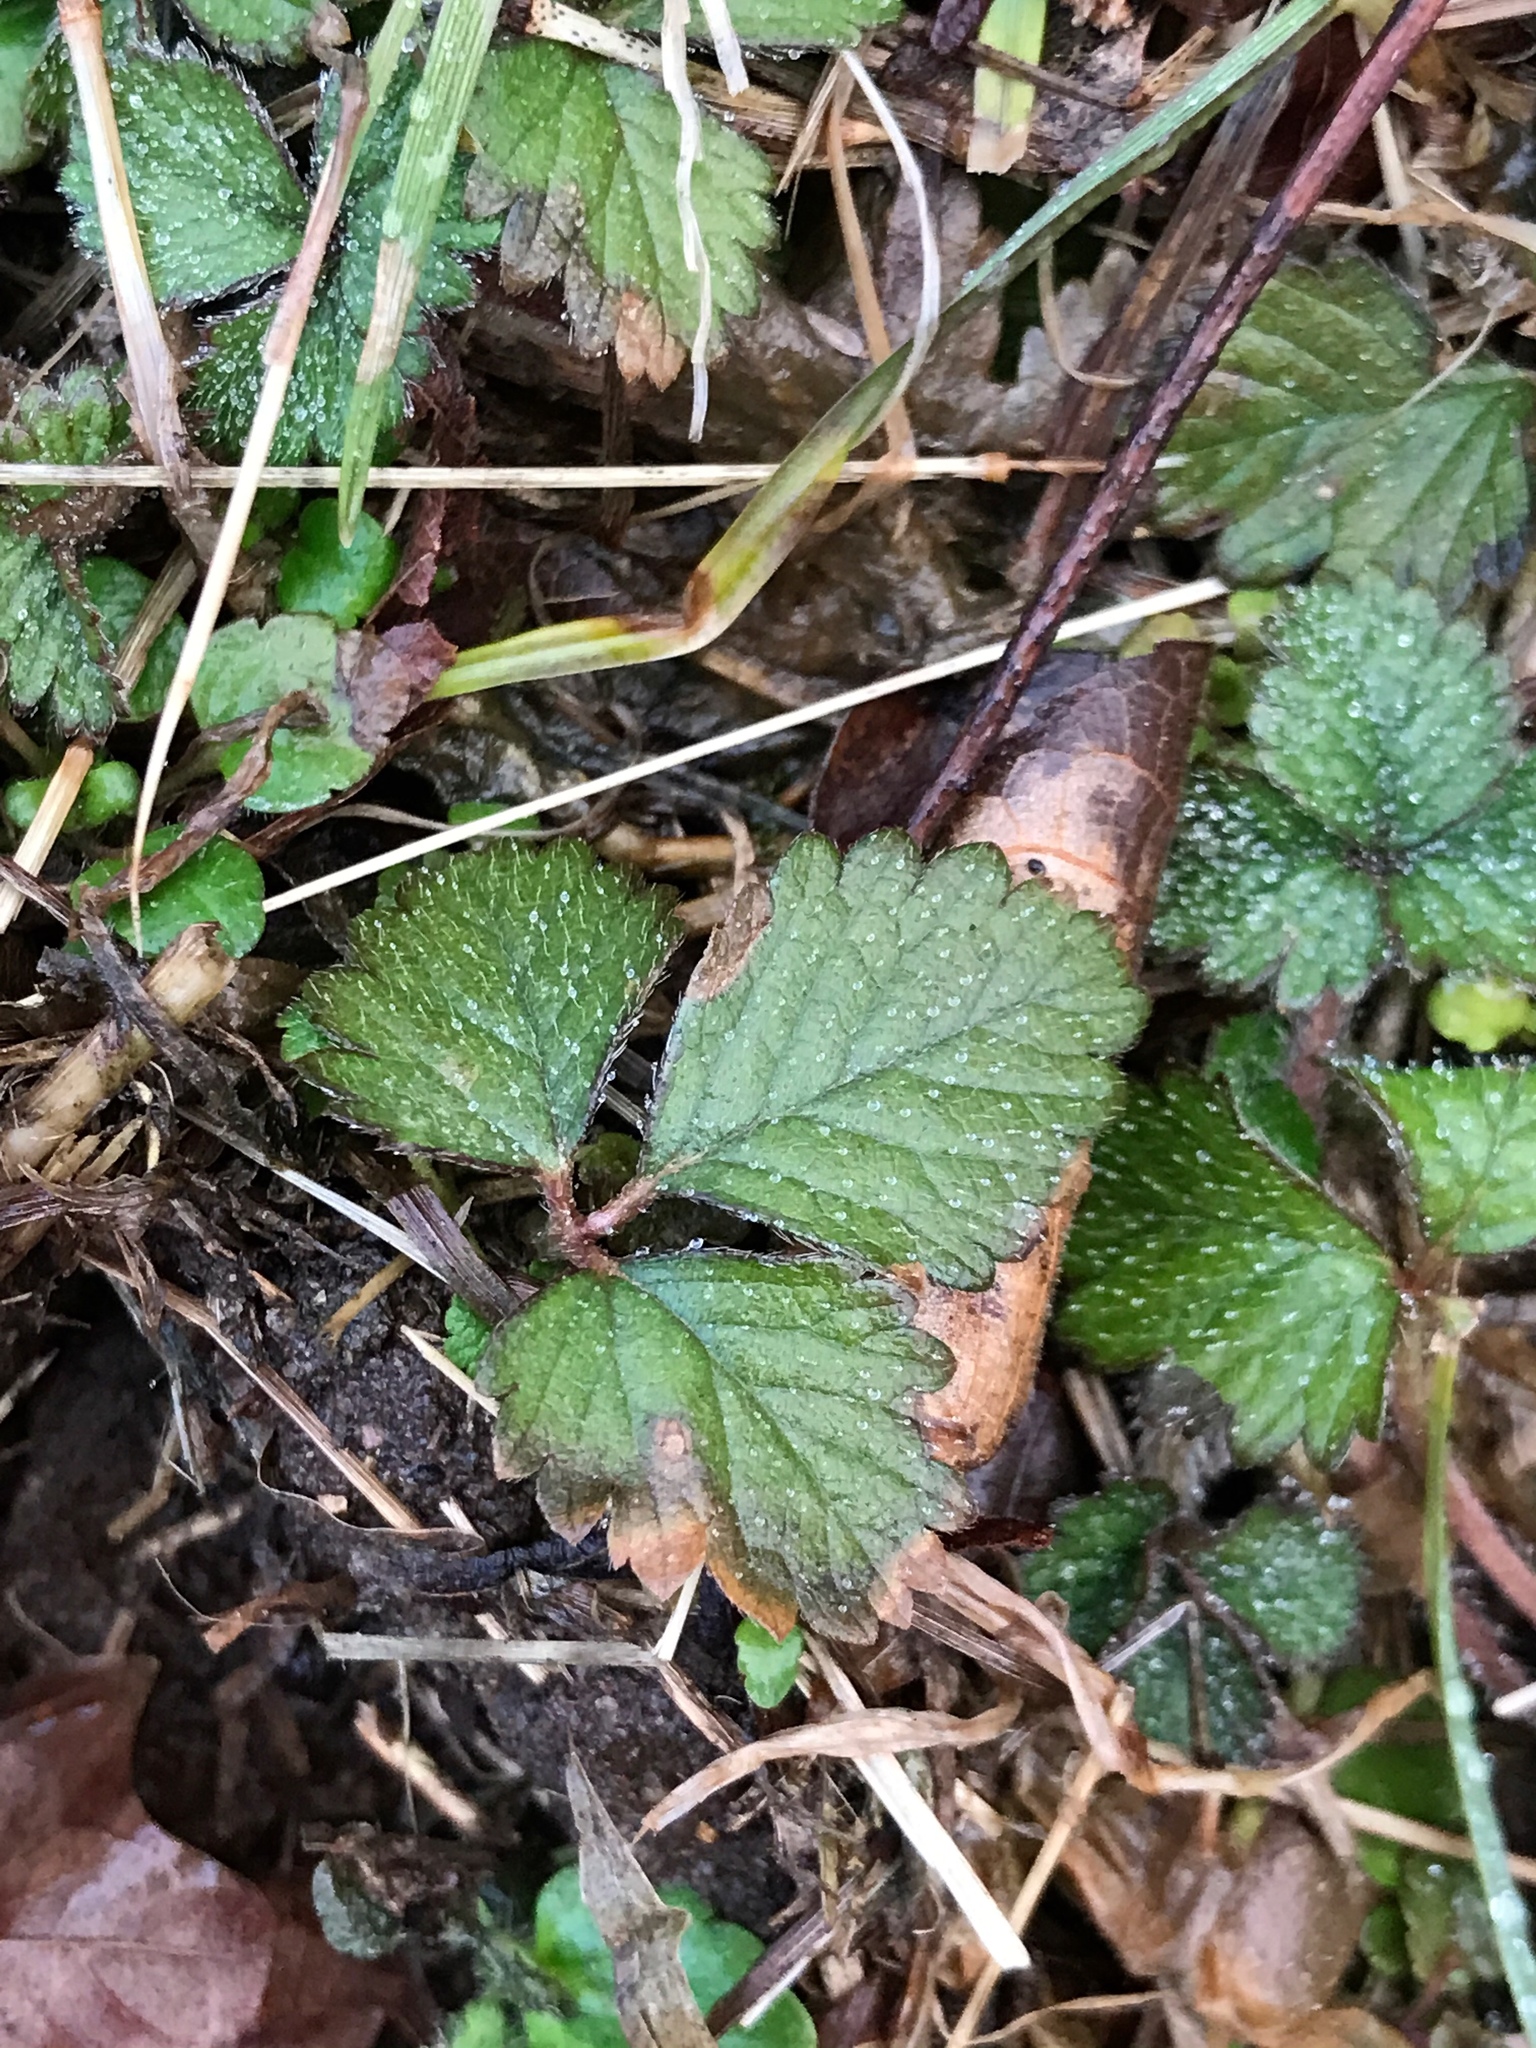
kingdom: Plantae
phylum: Tracheophyta
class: Magnoliopsida
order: Rosales
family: Rosaceae
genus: Potentilla
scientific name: Potentilla indica
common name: Yellow-flowered strawberry
